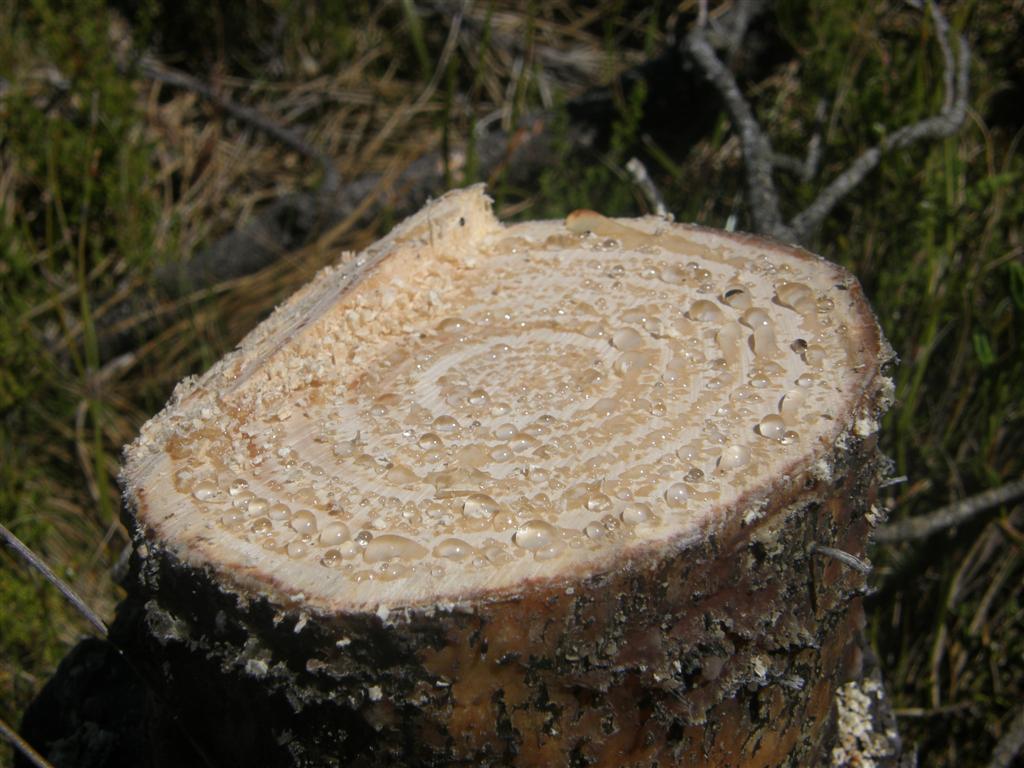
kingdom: Plantae
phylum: Tracheophyta
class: Pinopsida
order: Pinales
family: Pinaceae
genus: Pinus
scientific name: Pinus pinaster
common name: Maritime pine
